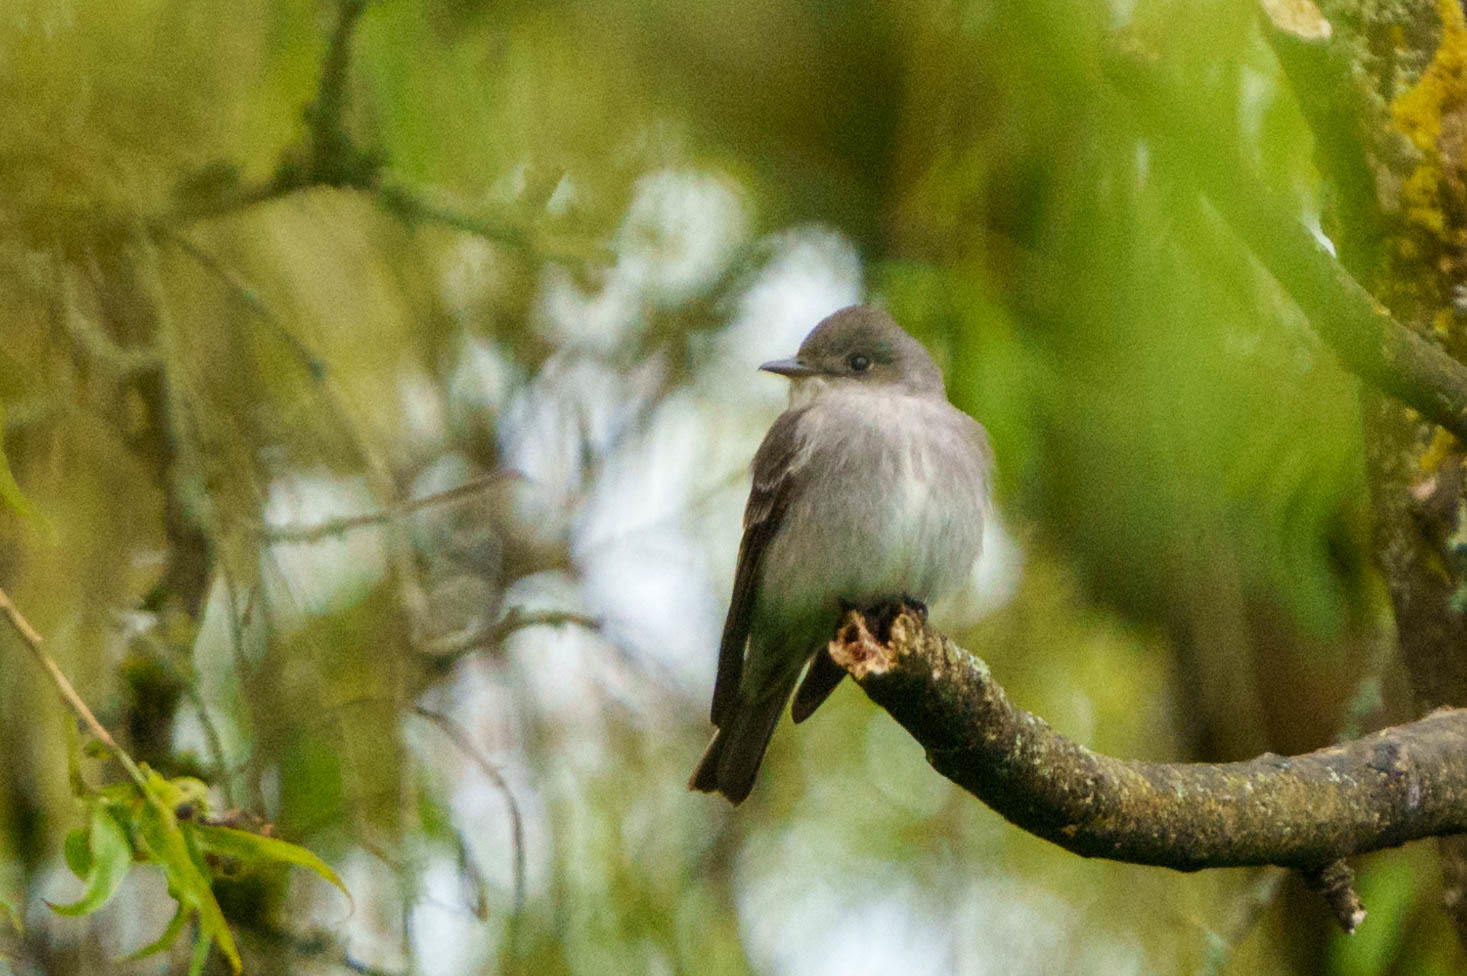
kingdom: Animalia
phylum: Chordata
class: Aves
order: Passeriformes
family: Tyrannidae
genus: Contopus
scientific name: Contopus sordidulus
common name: Western wood-pewee
